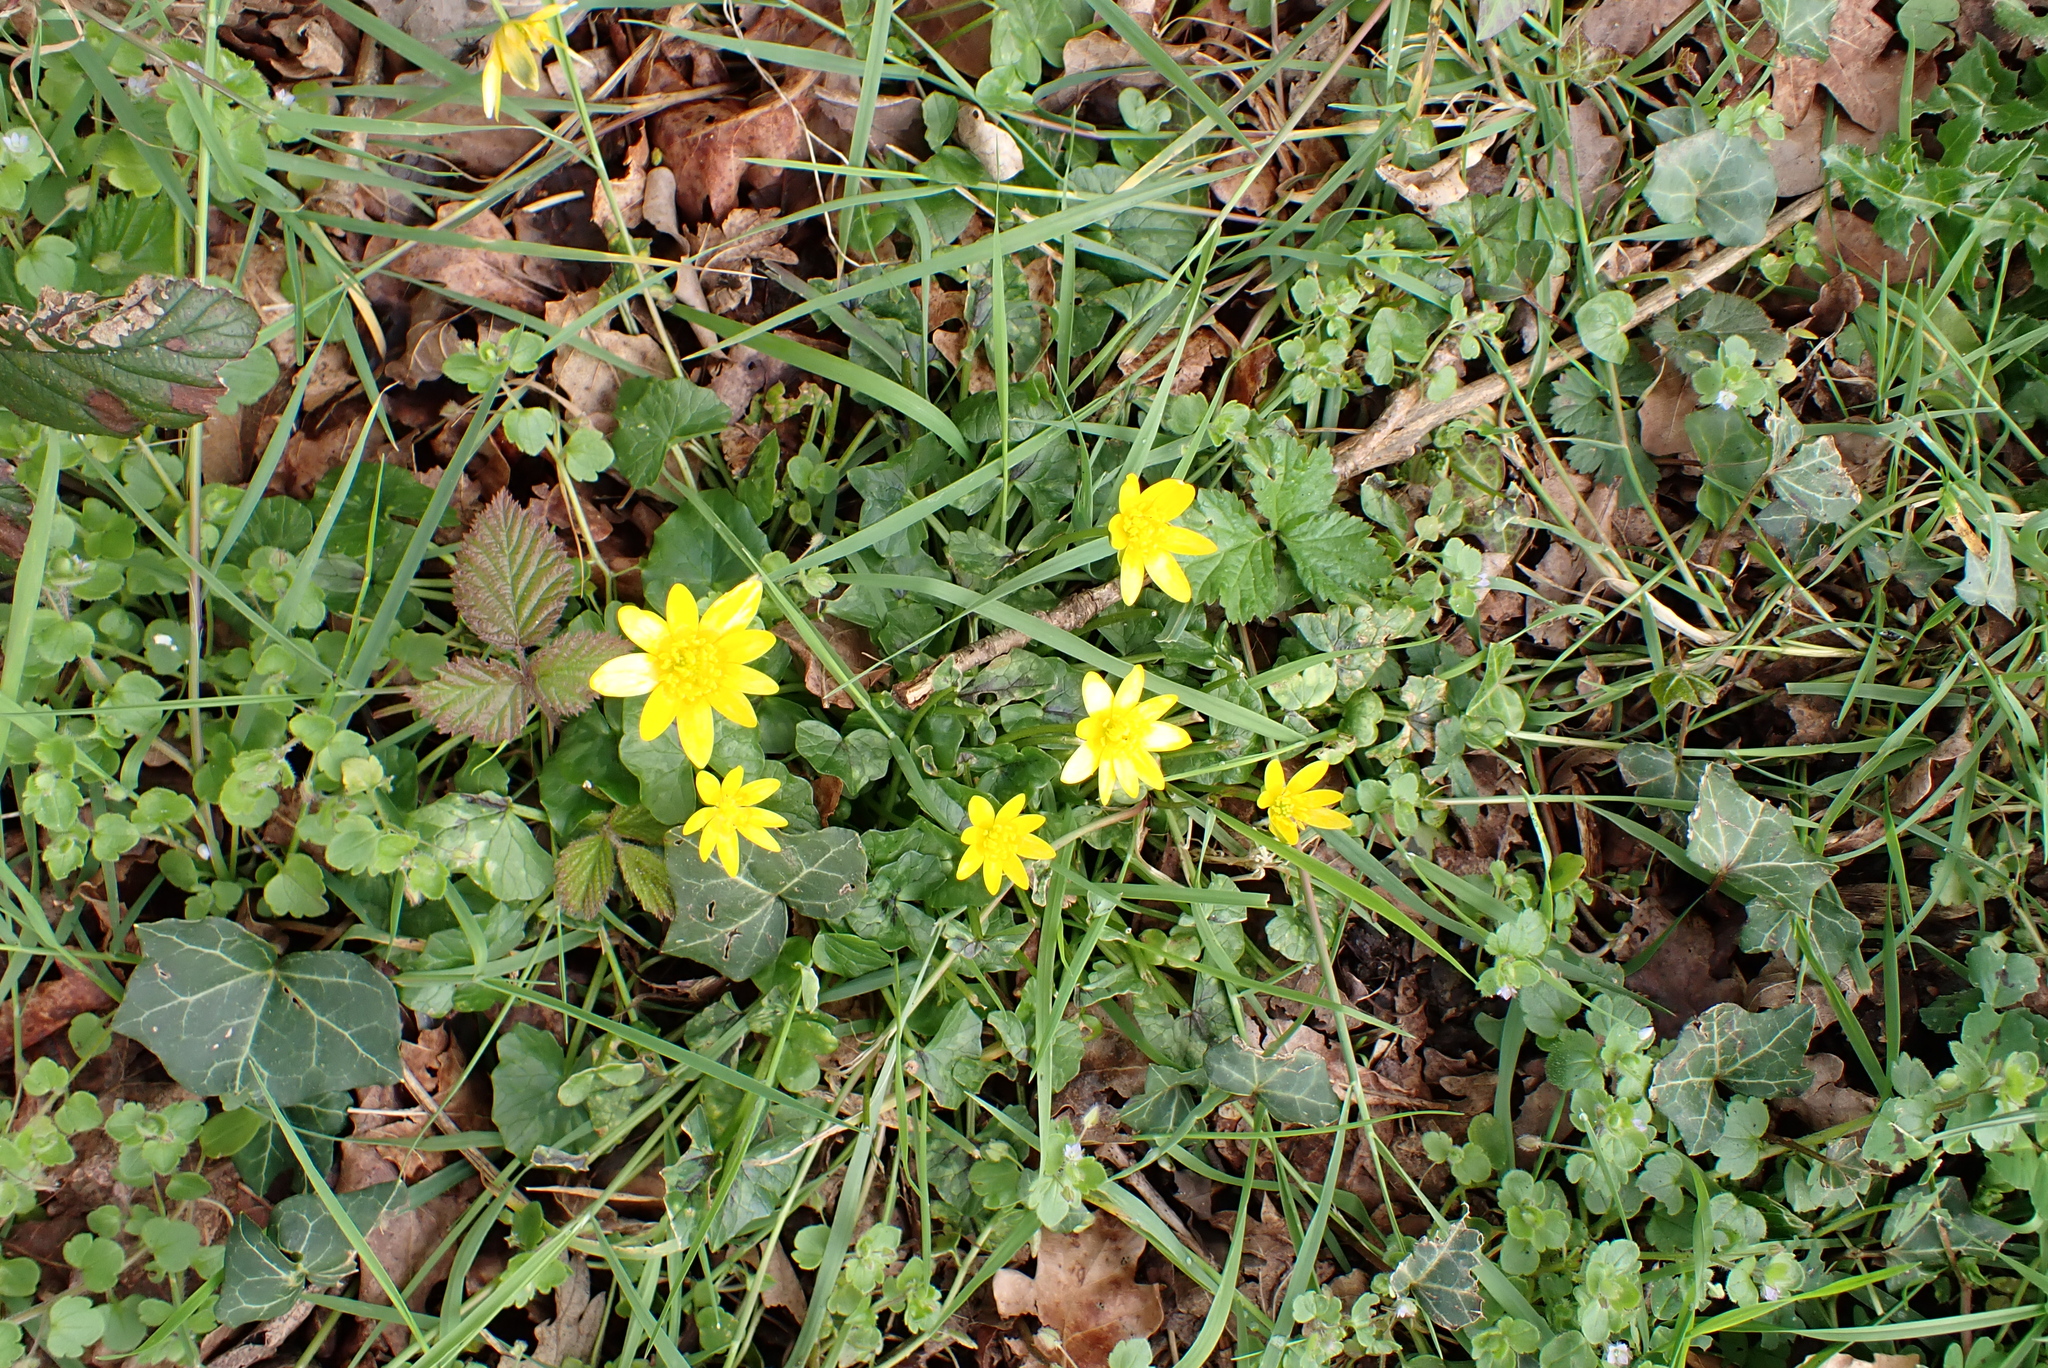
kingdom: Plantae
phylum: Tracheophyta
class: Magnoliopsida
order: Ranunculales
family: Ranunculaceae
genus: Ficaria
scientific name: Ficaria verna
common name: Lesser celandine
